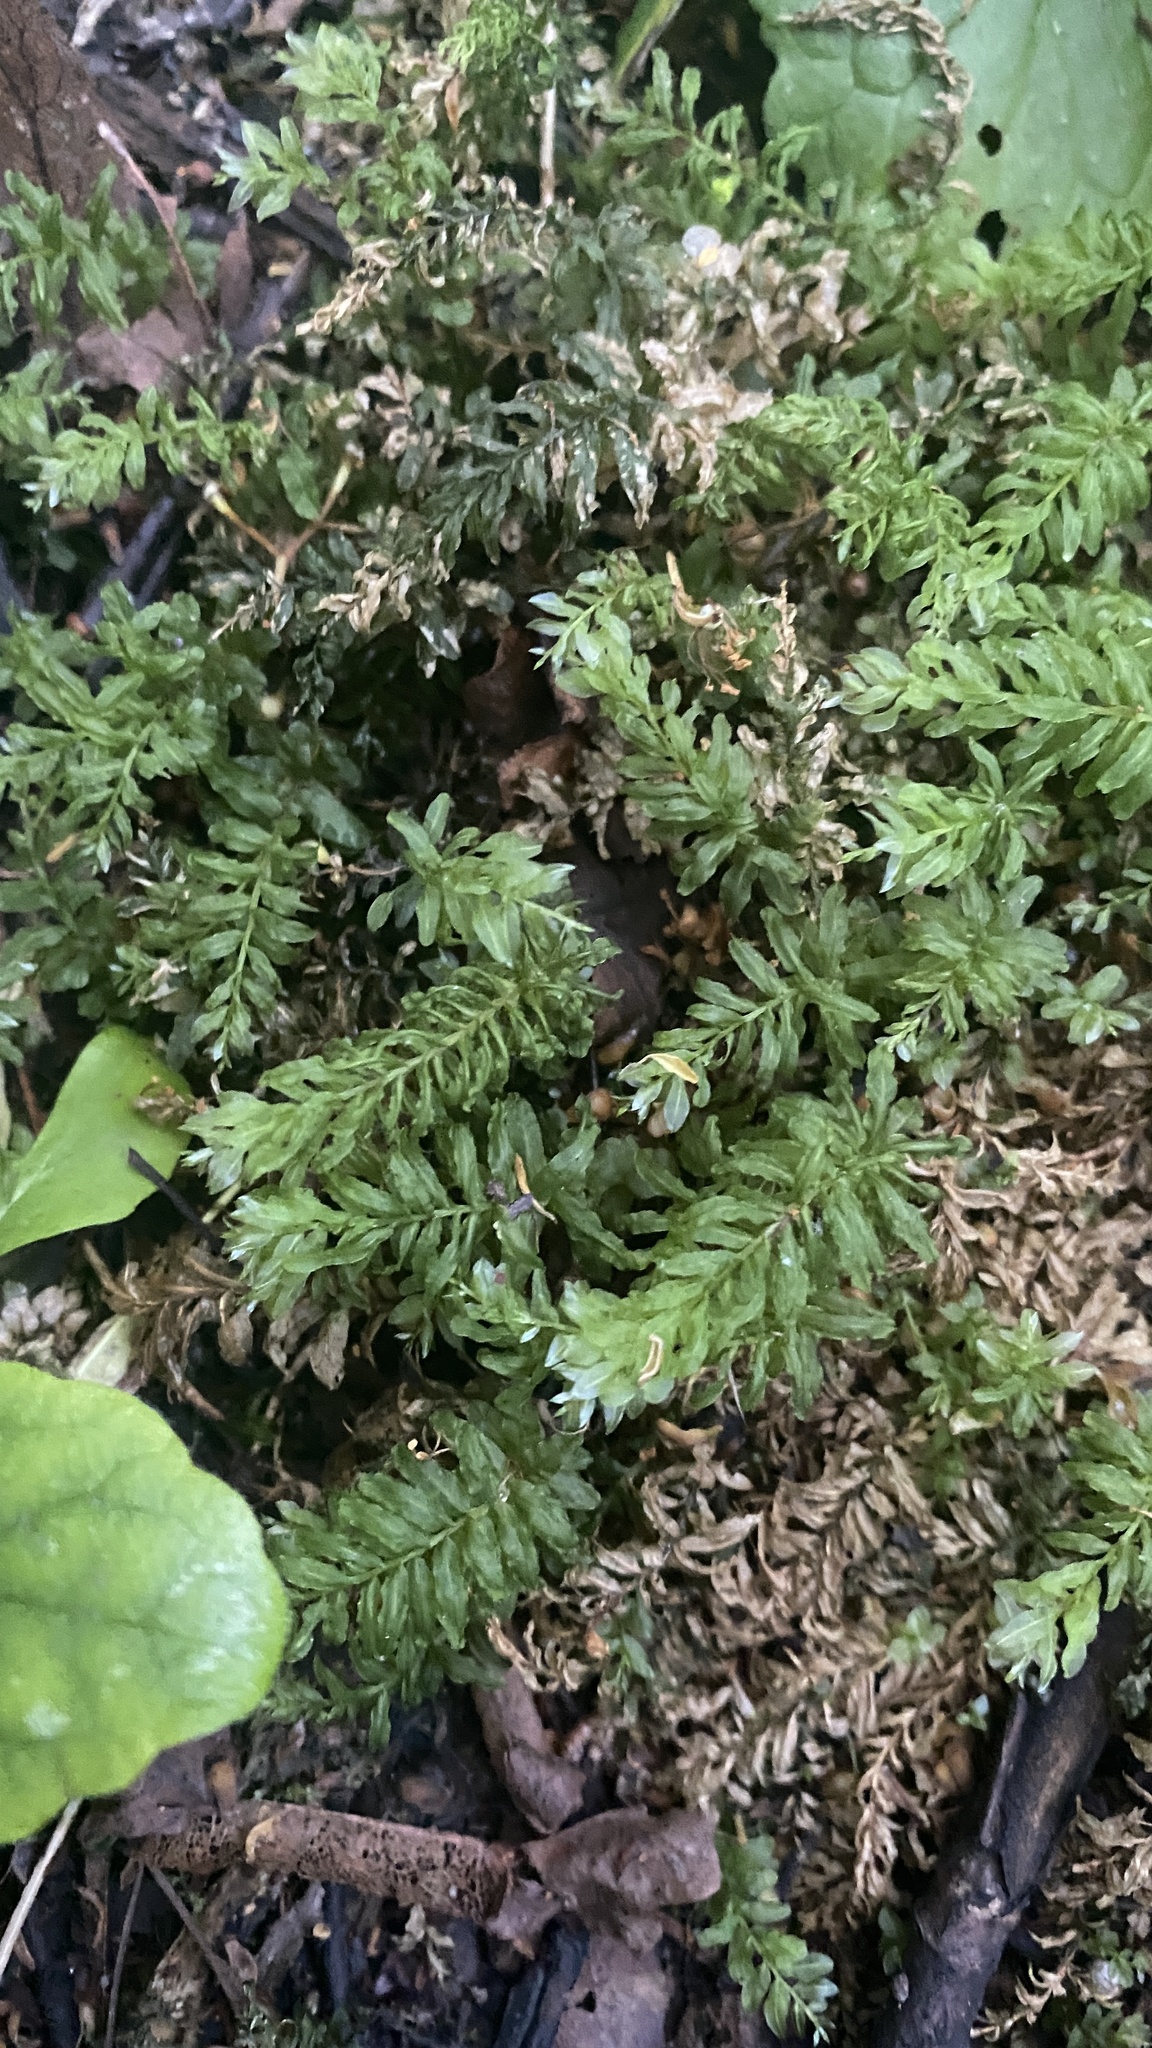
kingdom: Plantae
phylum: Bryophyta
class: Bryopsida
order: Bryales
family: Mniaceae
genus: Plagiomnium
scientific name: Plagiomnium undulatum
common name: Hart's-tongue thyme-moss
